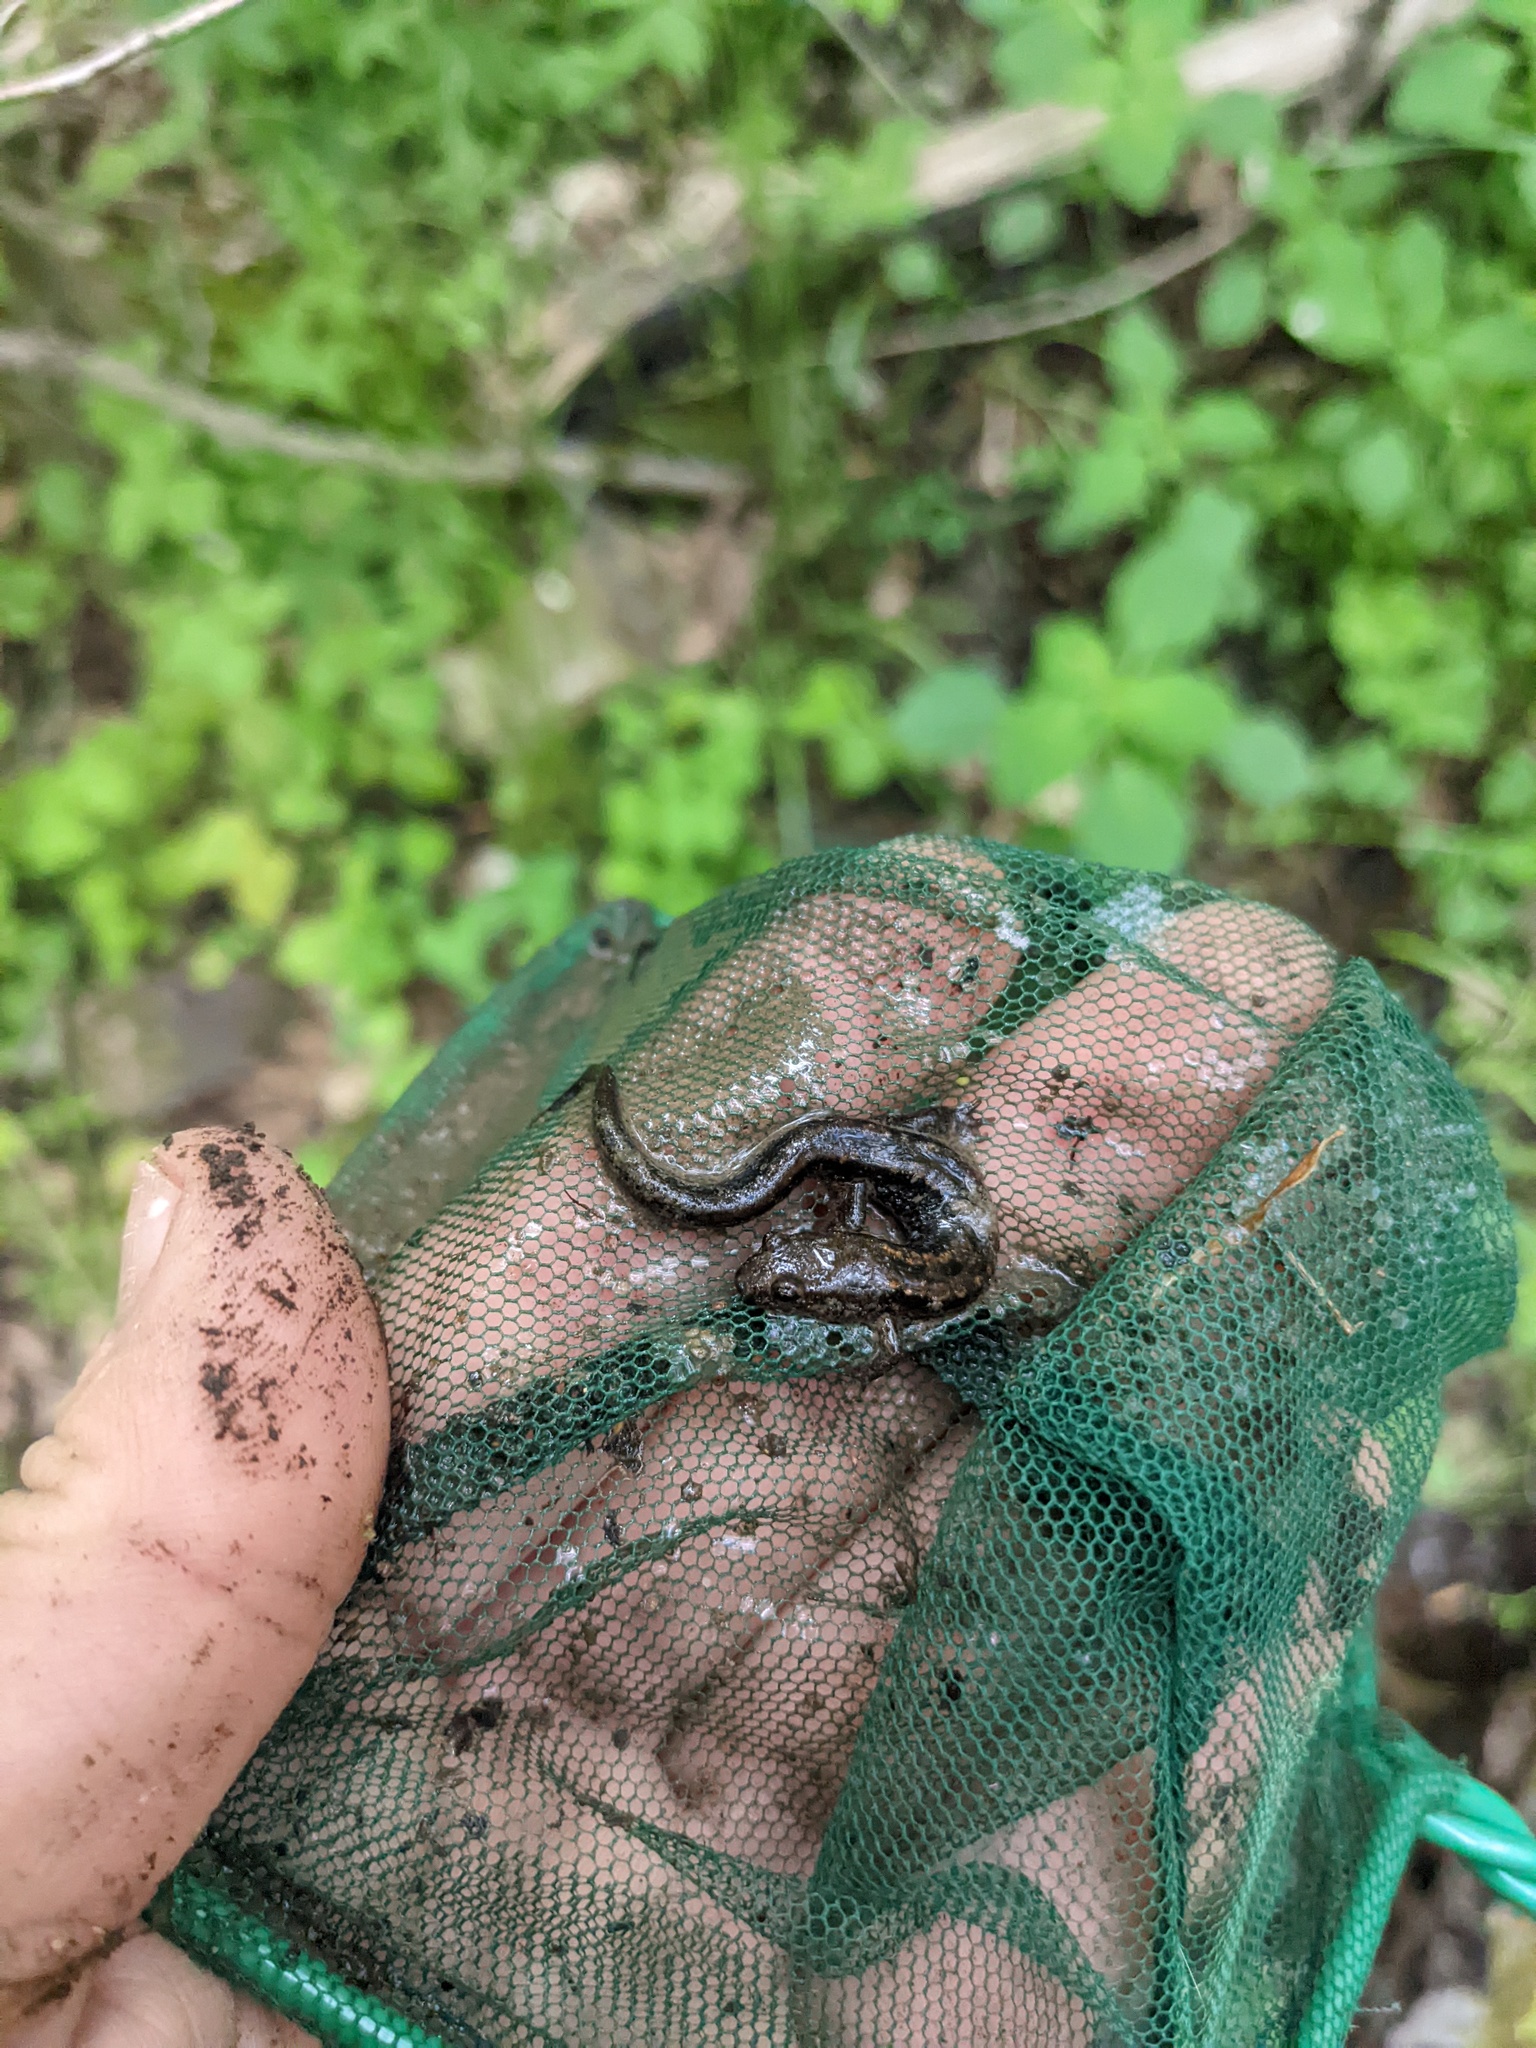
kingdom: Animalia
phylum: Chordata
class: Amphibia
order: Caudata
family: Plethodontidae
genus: Desmognathus
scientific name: Desmognathus ochrophaeus
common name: Allegheny mountain dusky salamander
